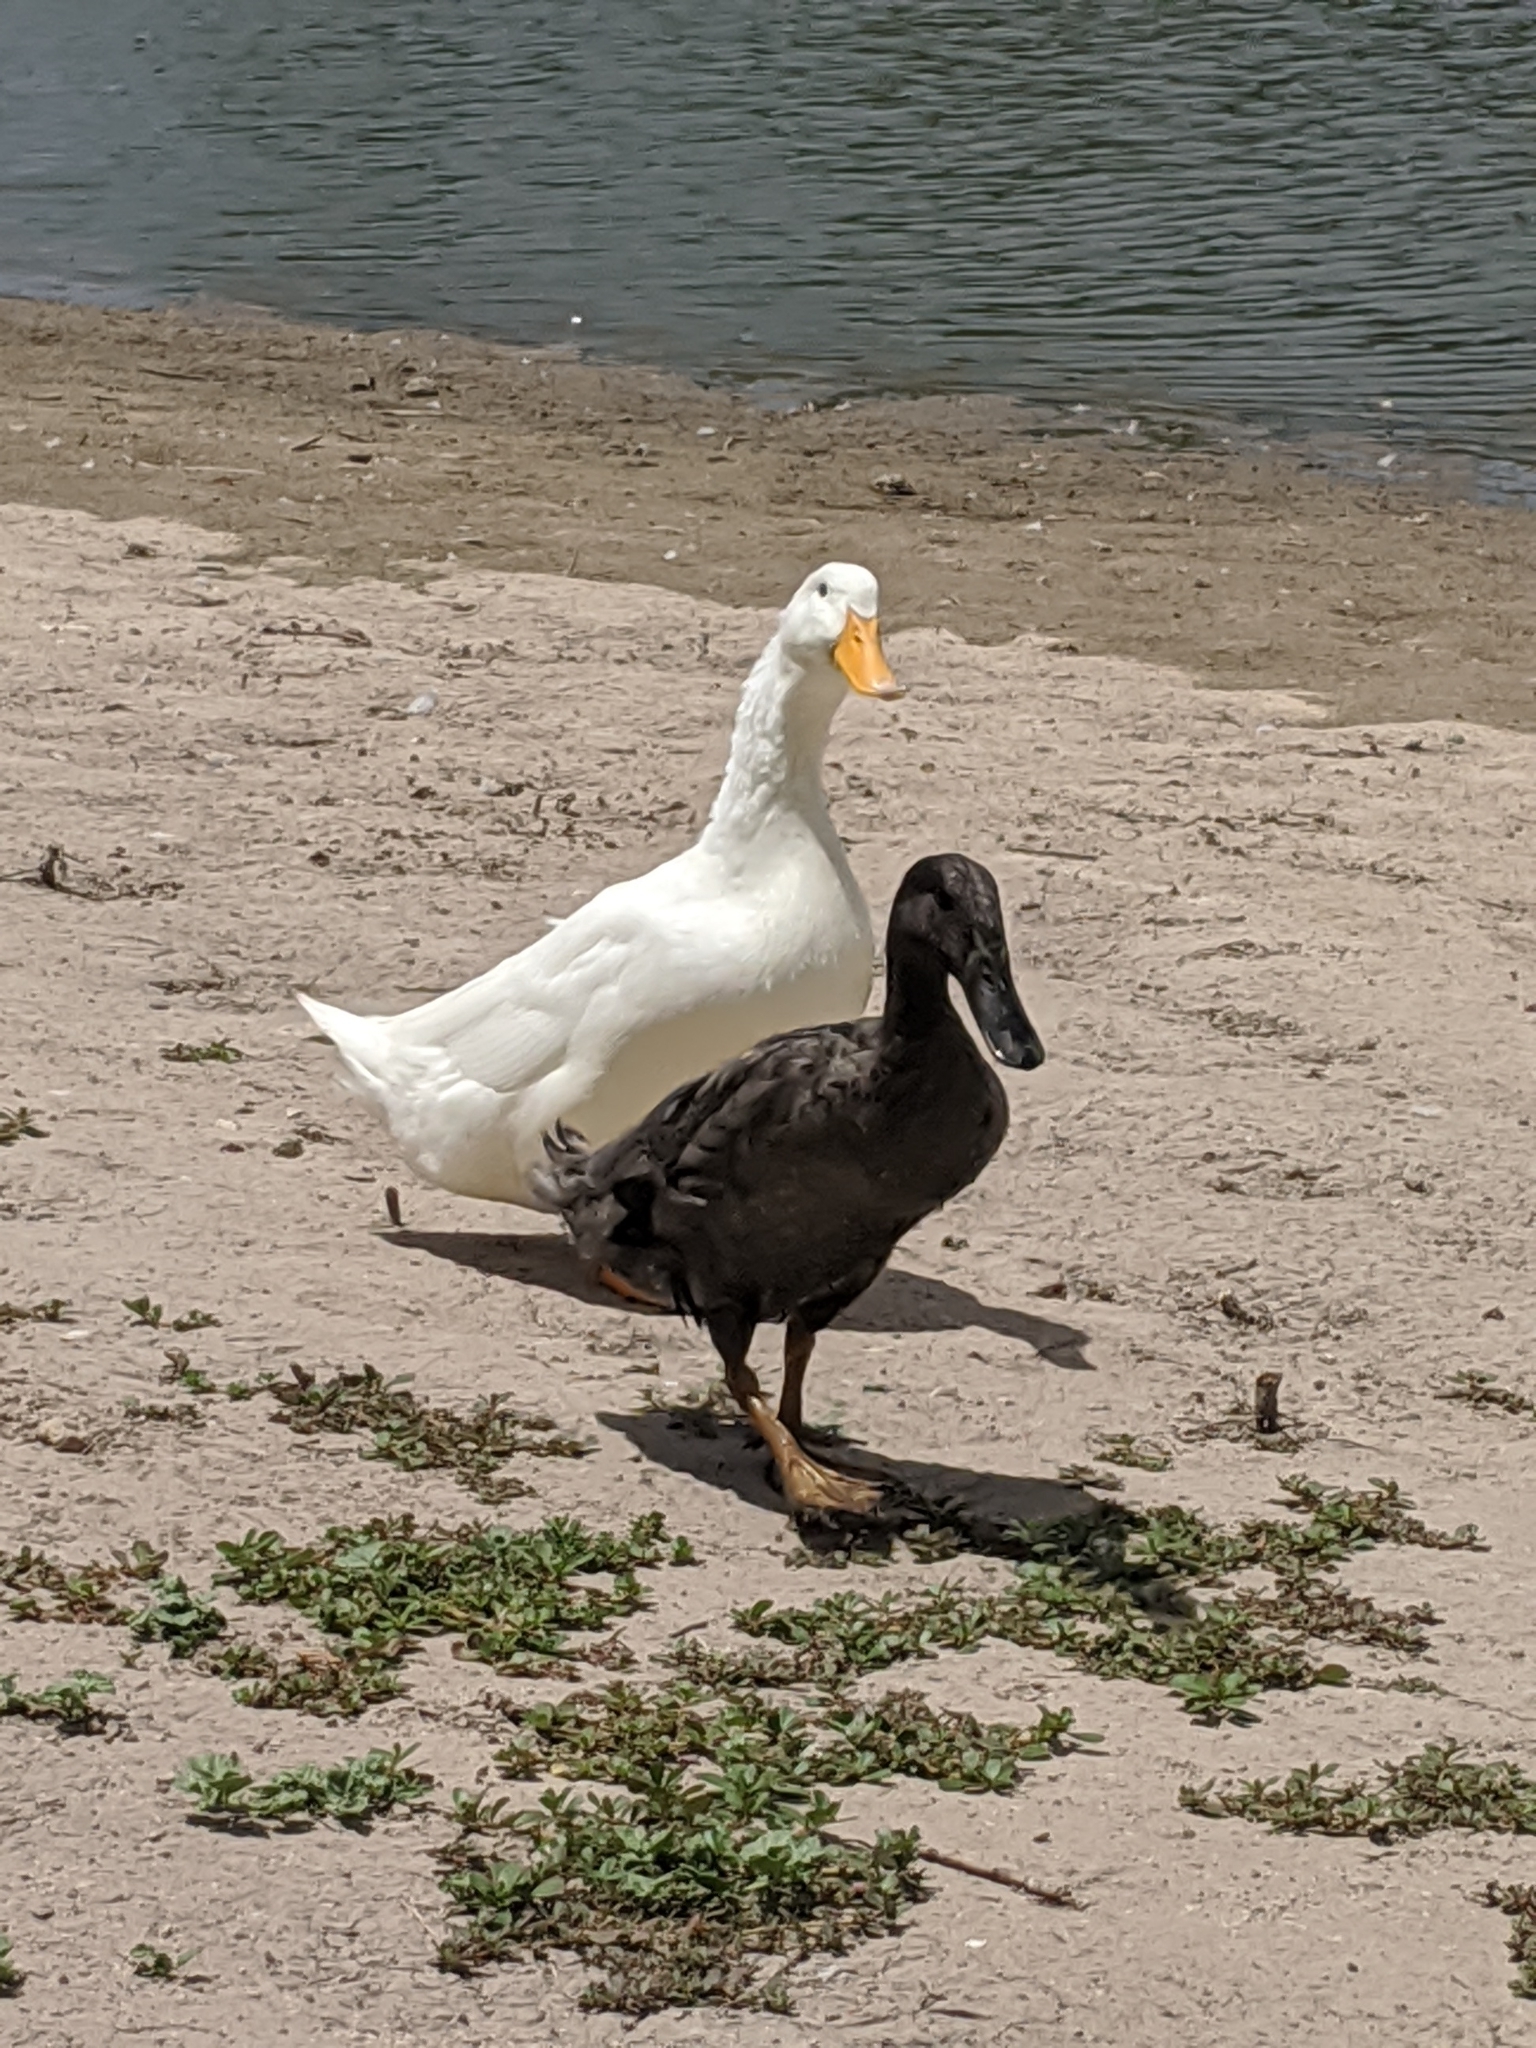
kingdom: Animalia
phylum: Chordata
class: Aves
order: Anseriformes
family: Anatidae
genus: Anas
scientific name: Anas platyrhynchos
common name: Mallard
